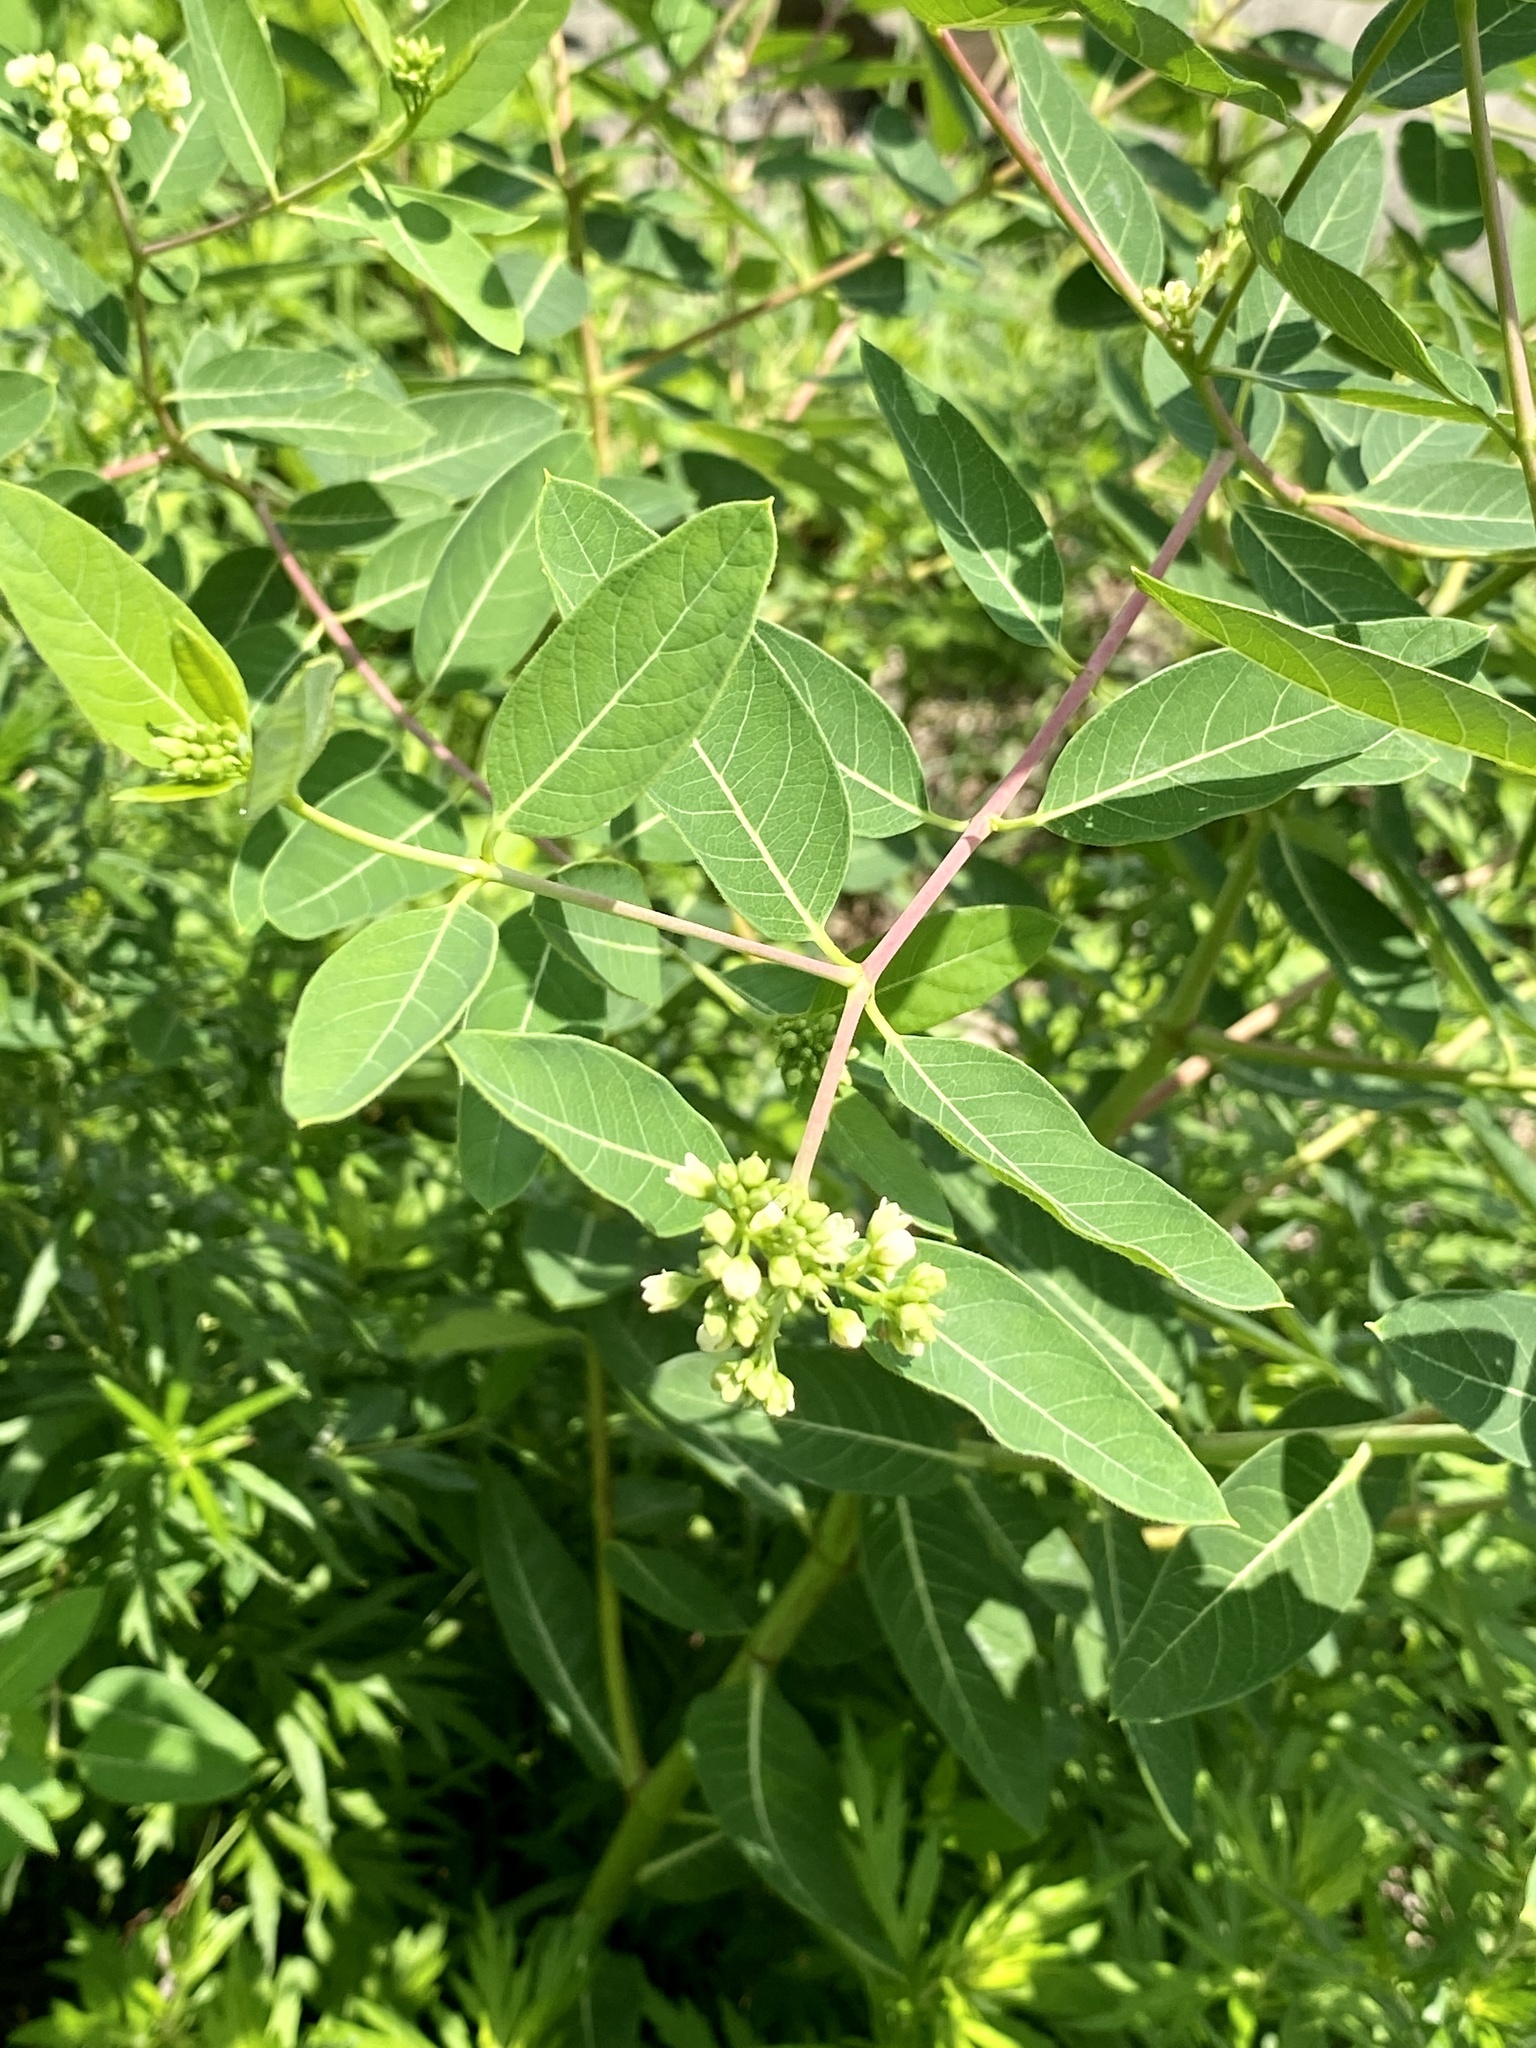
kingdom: Plantae
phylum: Tracheophyta
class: Magnoliopsida
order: Gentianales
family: Apocynaceae
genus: Apocynum
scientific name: Apocynum cannabinum
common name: Hemp dogbane
